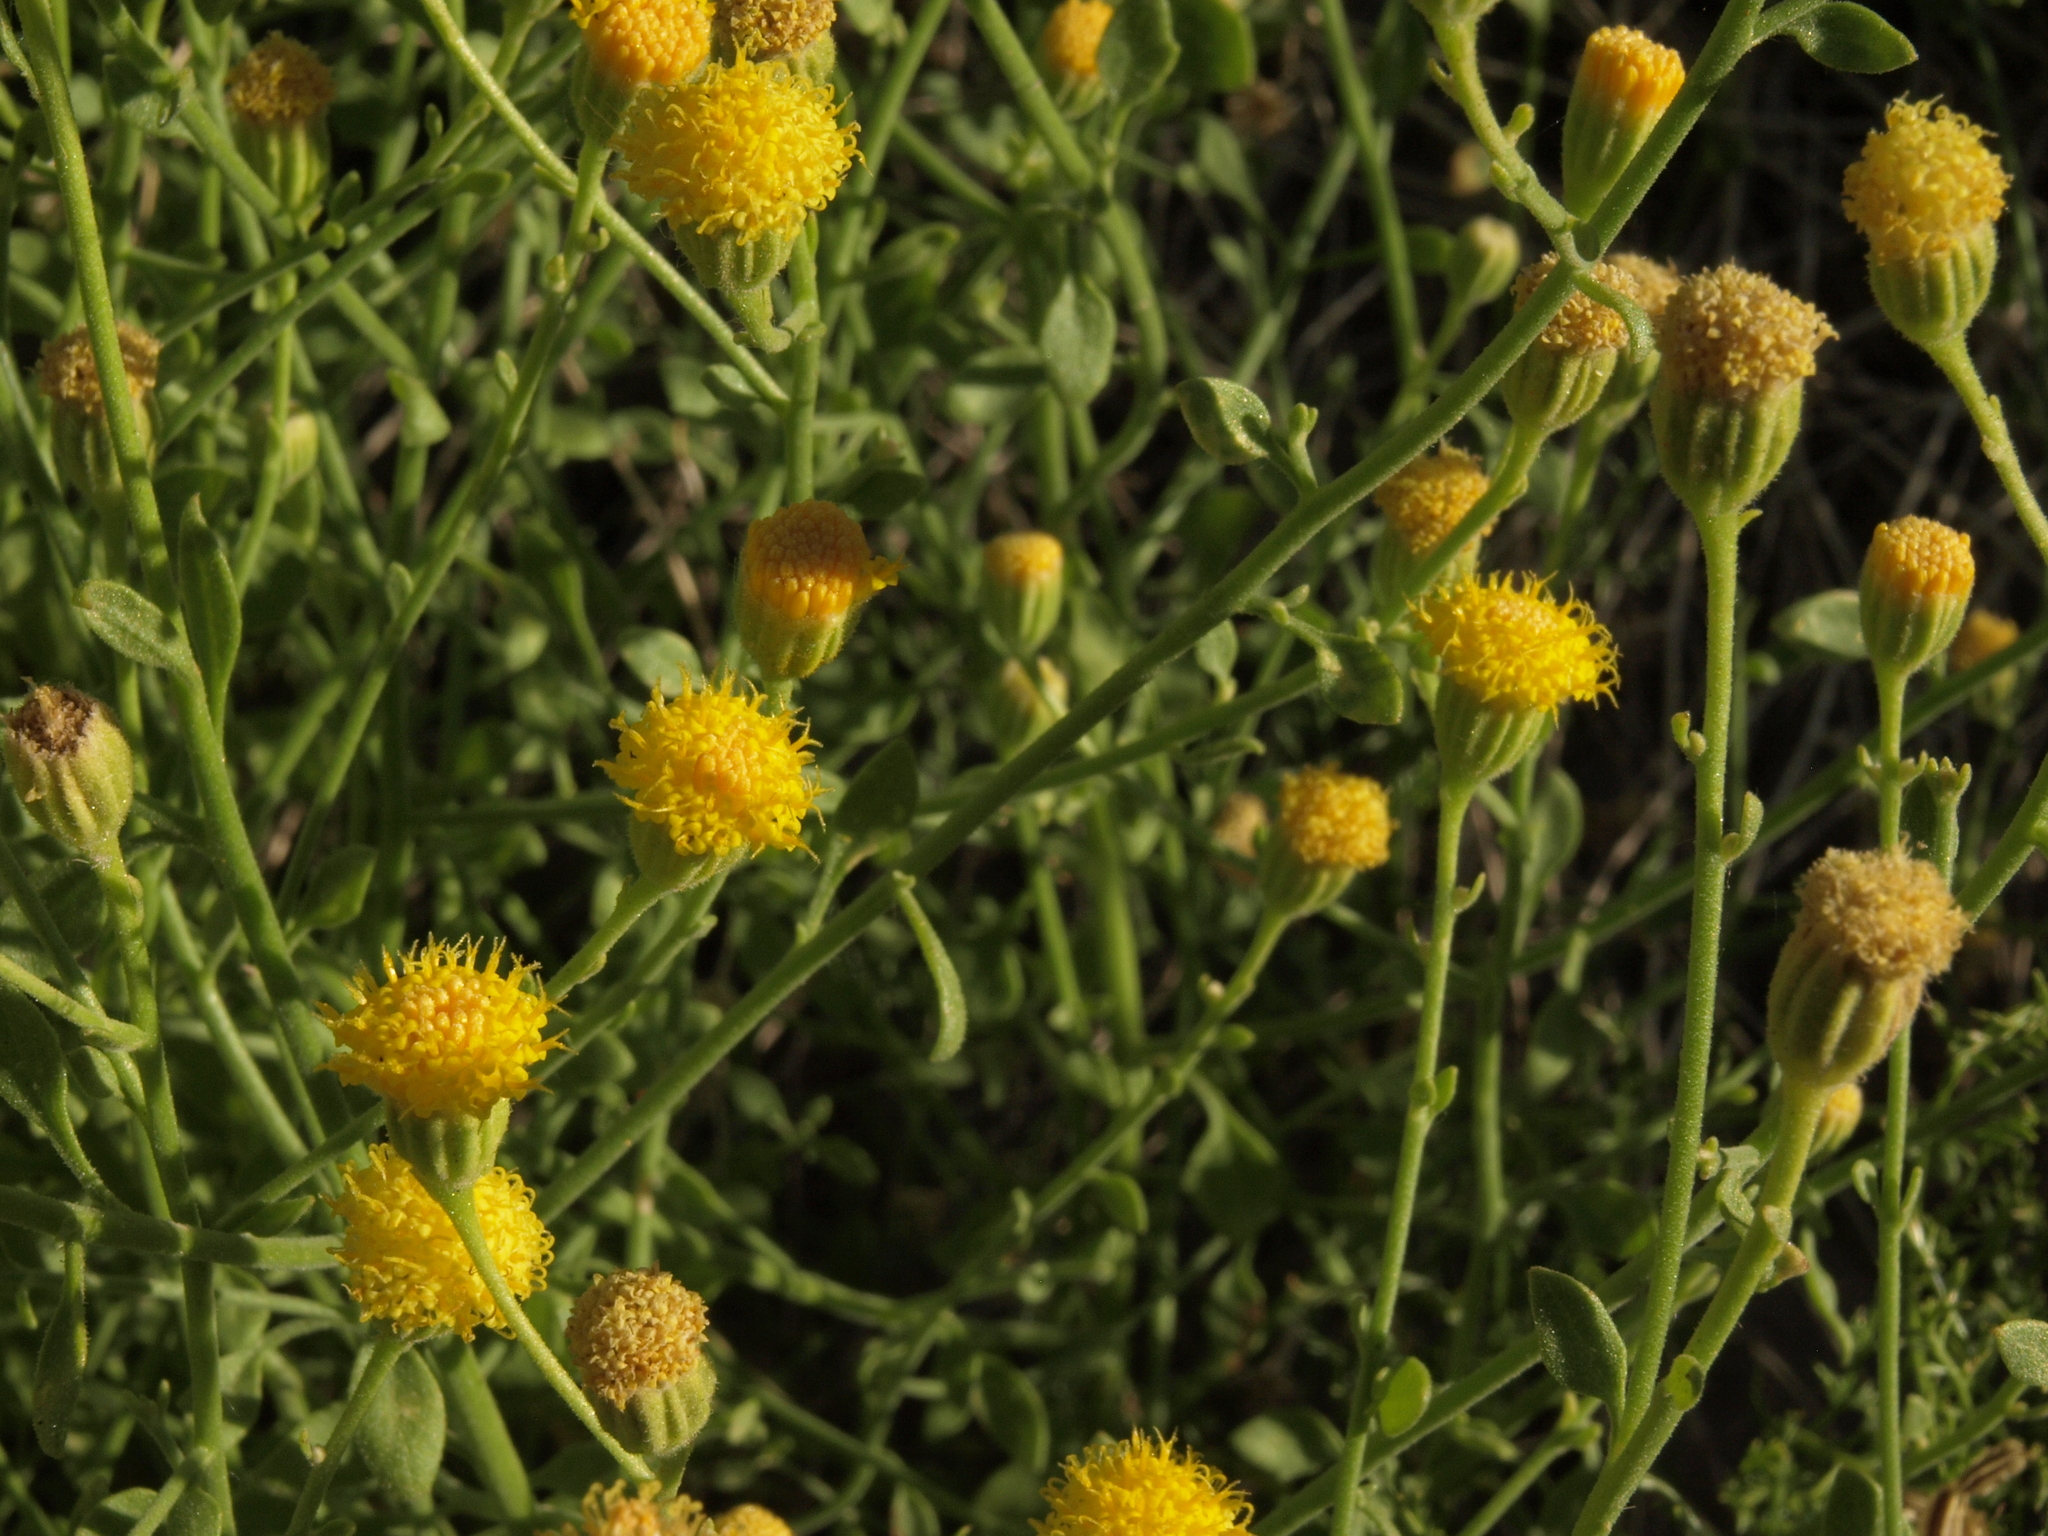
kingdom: Plantae
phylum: Tracheophyta
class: Magnoliopsida
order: Asterales
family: Asteraceae
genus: Laphamia
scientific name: Laphamia megalocephala
